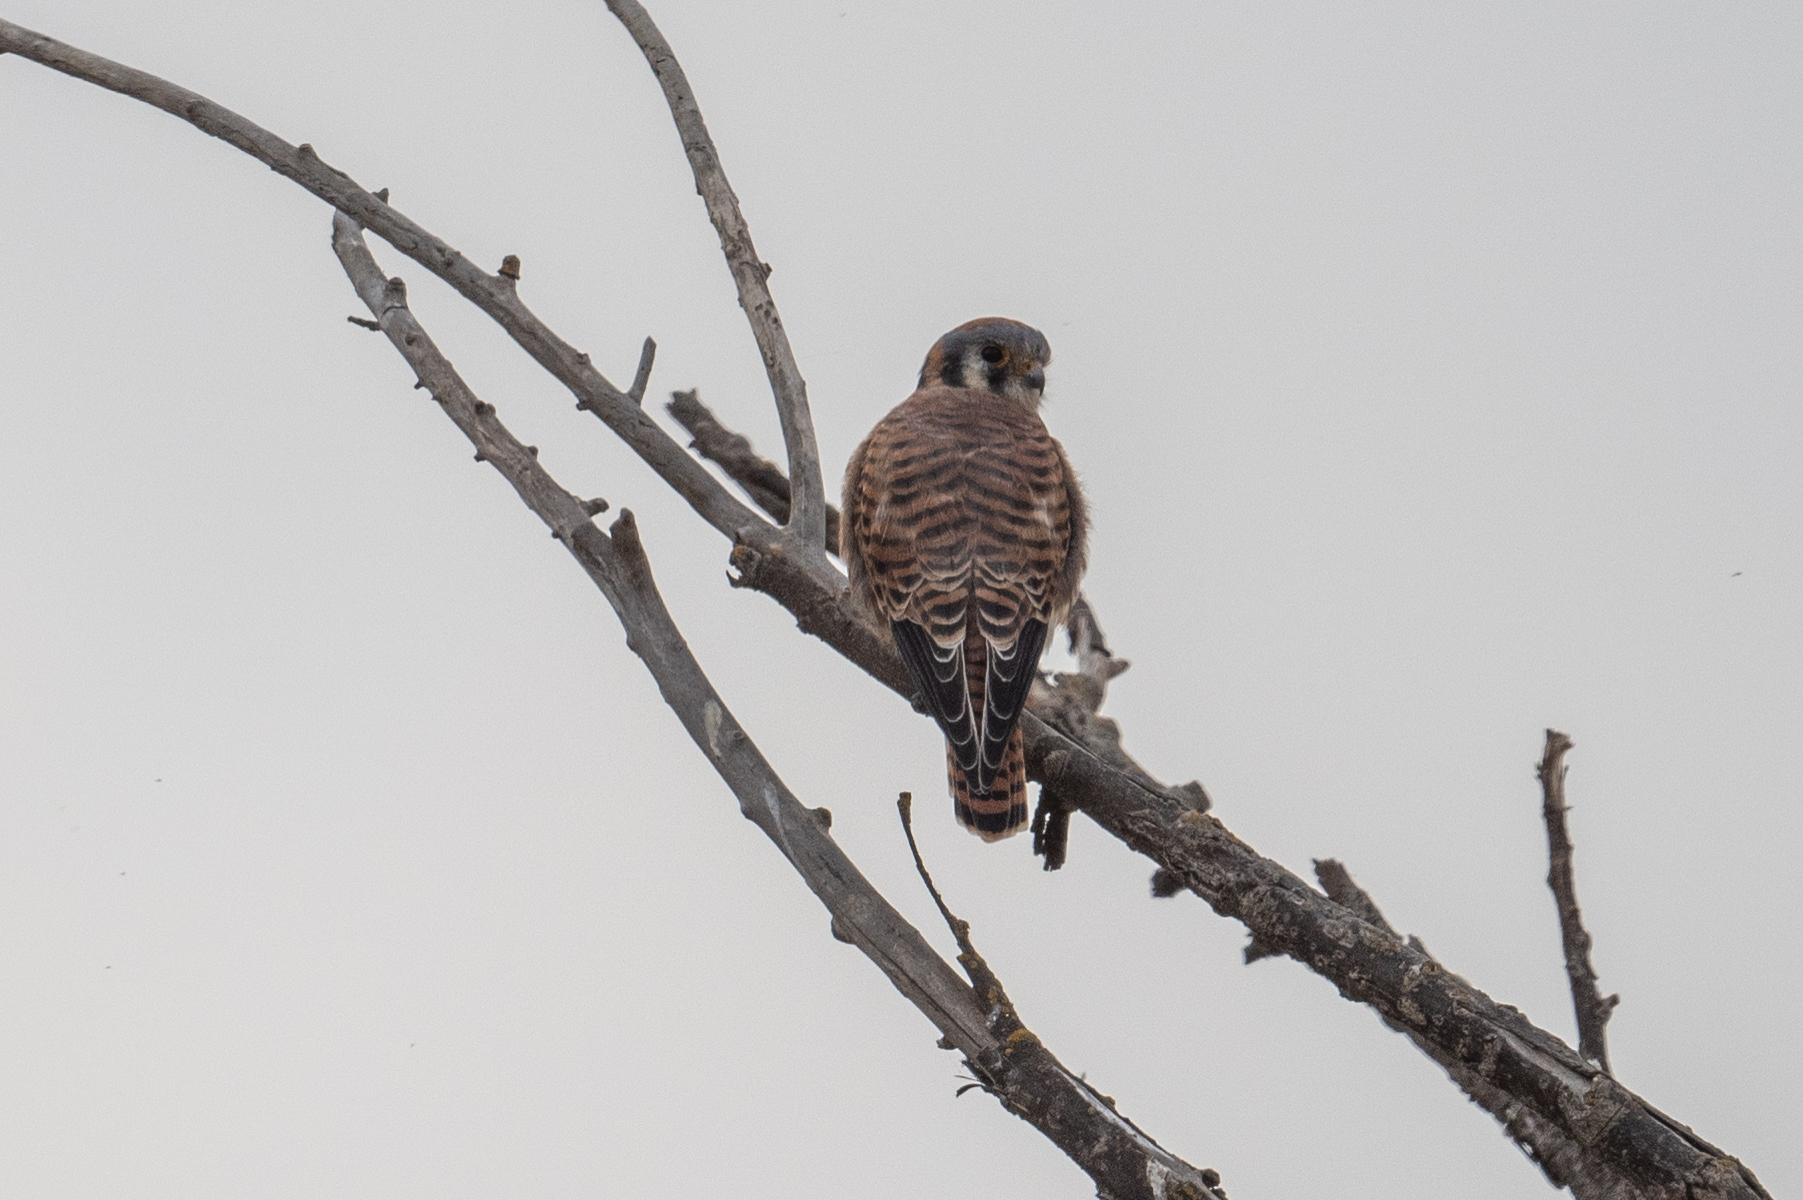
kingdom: Animalia
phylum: Chordata
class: Aves
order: Falconiformes
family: Falconidae
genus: Falco
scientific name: Falco sparverius
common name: American kestrel
